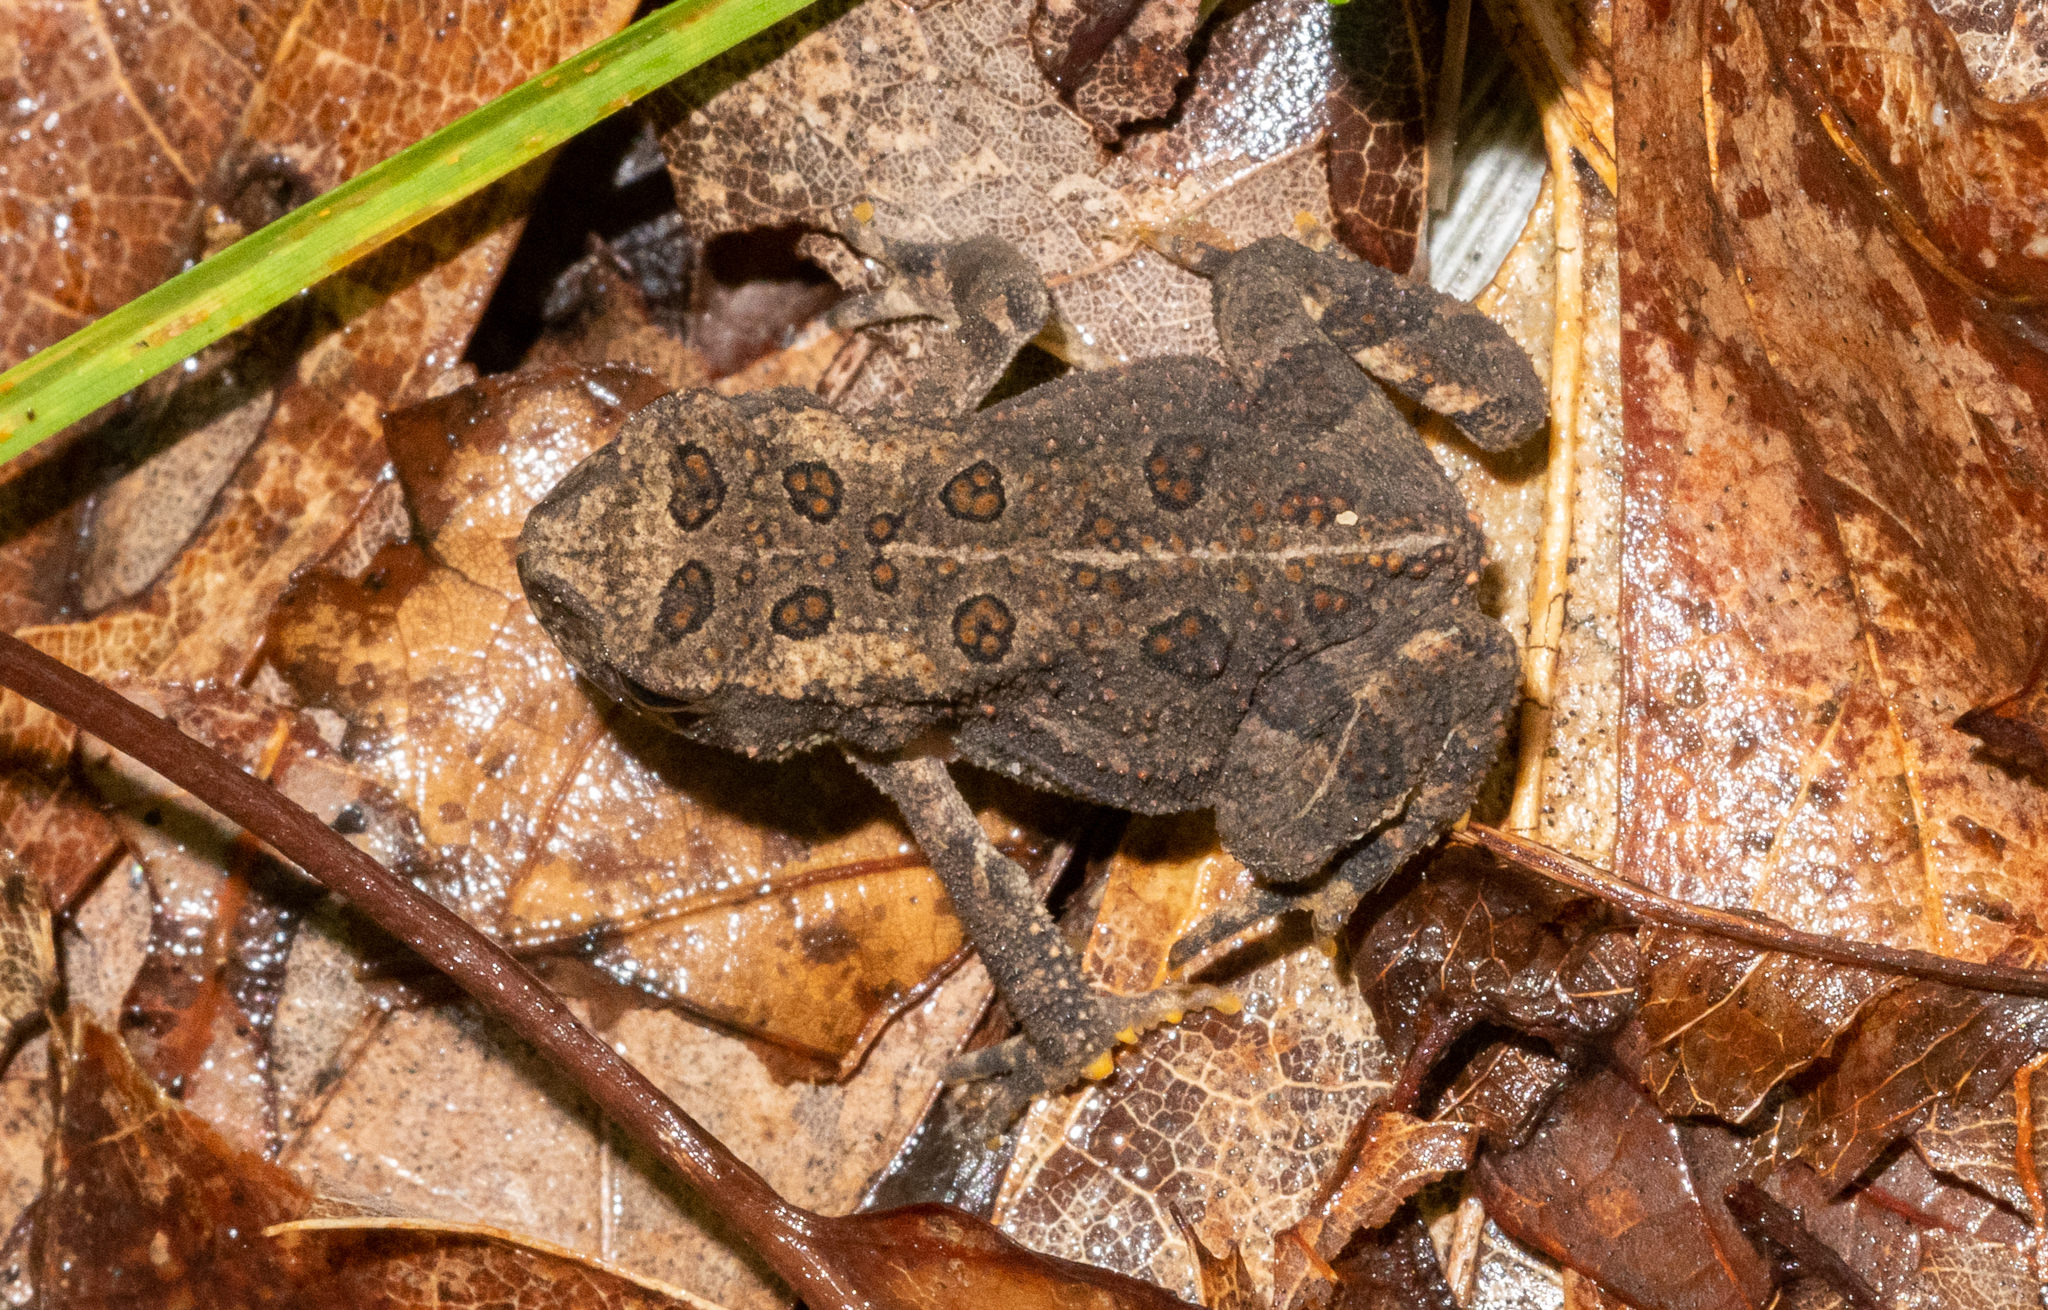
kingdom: Animalia
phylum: Chordata
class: Amphibia
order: Anura
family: Bufonidae
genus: Anaxyrus
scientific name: Anaxyrus americanus
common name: American toad
